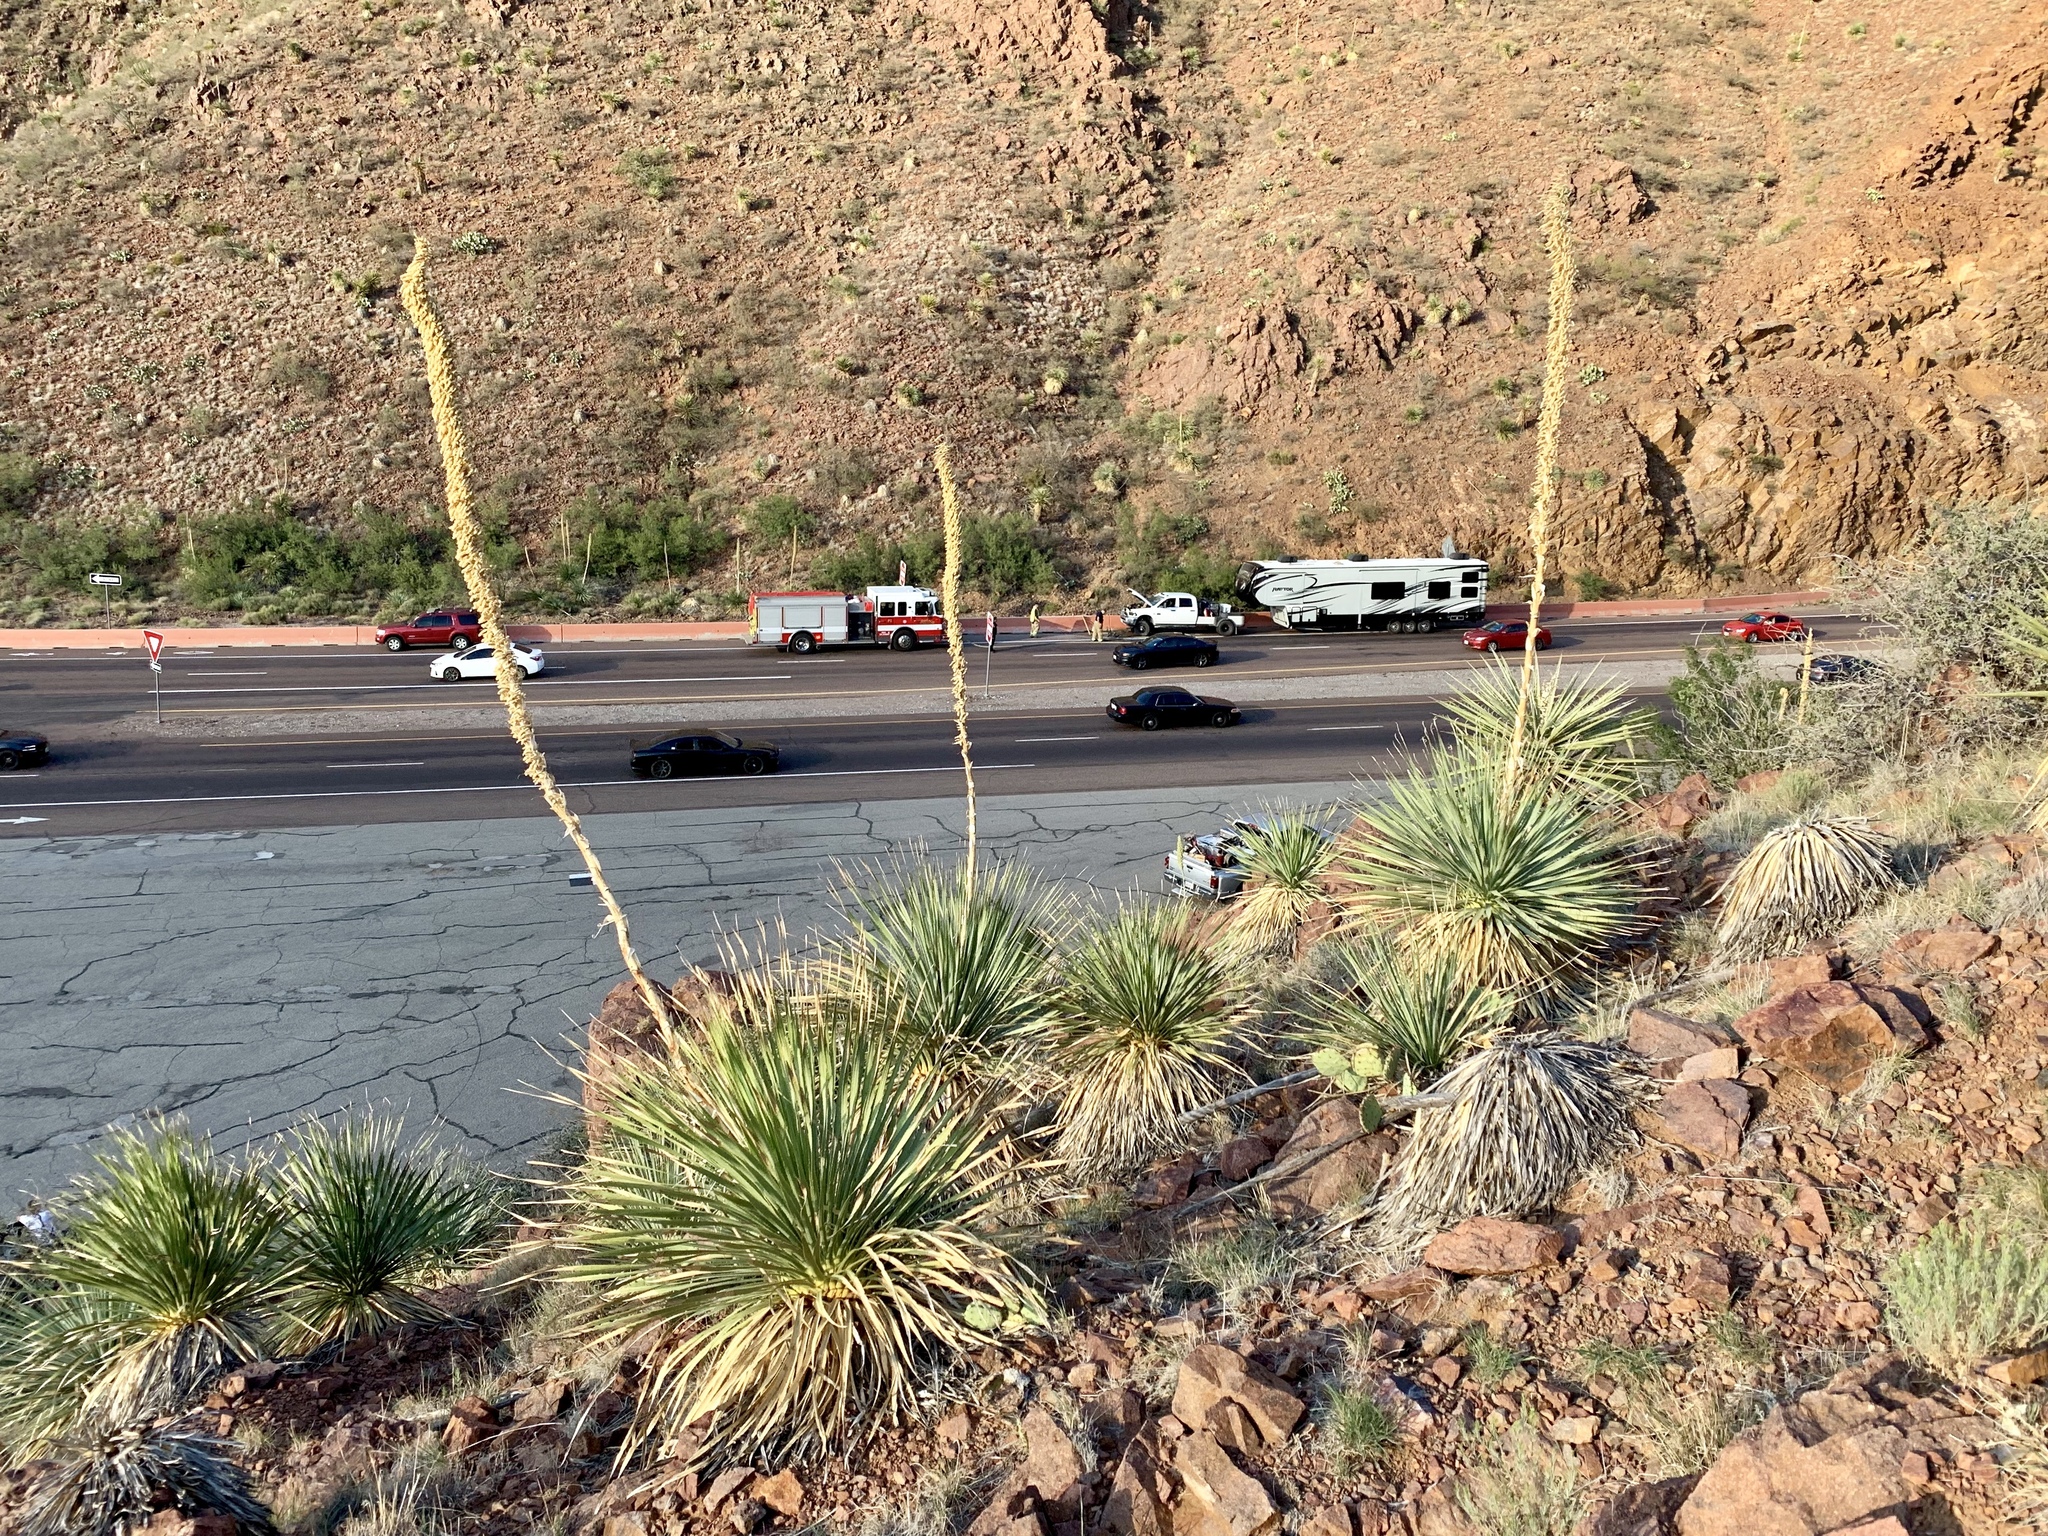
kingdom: Plantae
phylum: Tracheophyta
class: Liliopsida
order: Asparagales
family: Asparagaceae
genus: Dasylirion
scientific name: Dasylirion wheeleri
